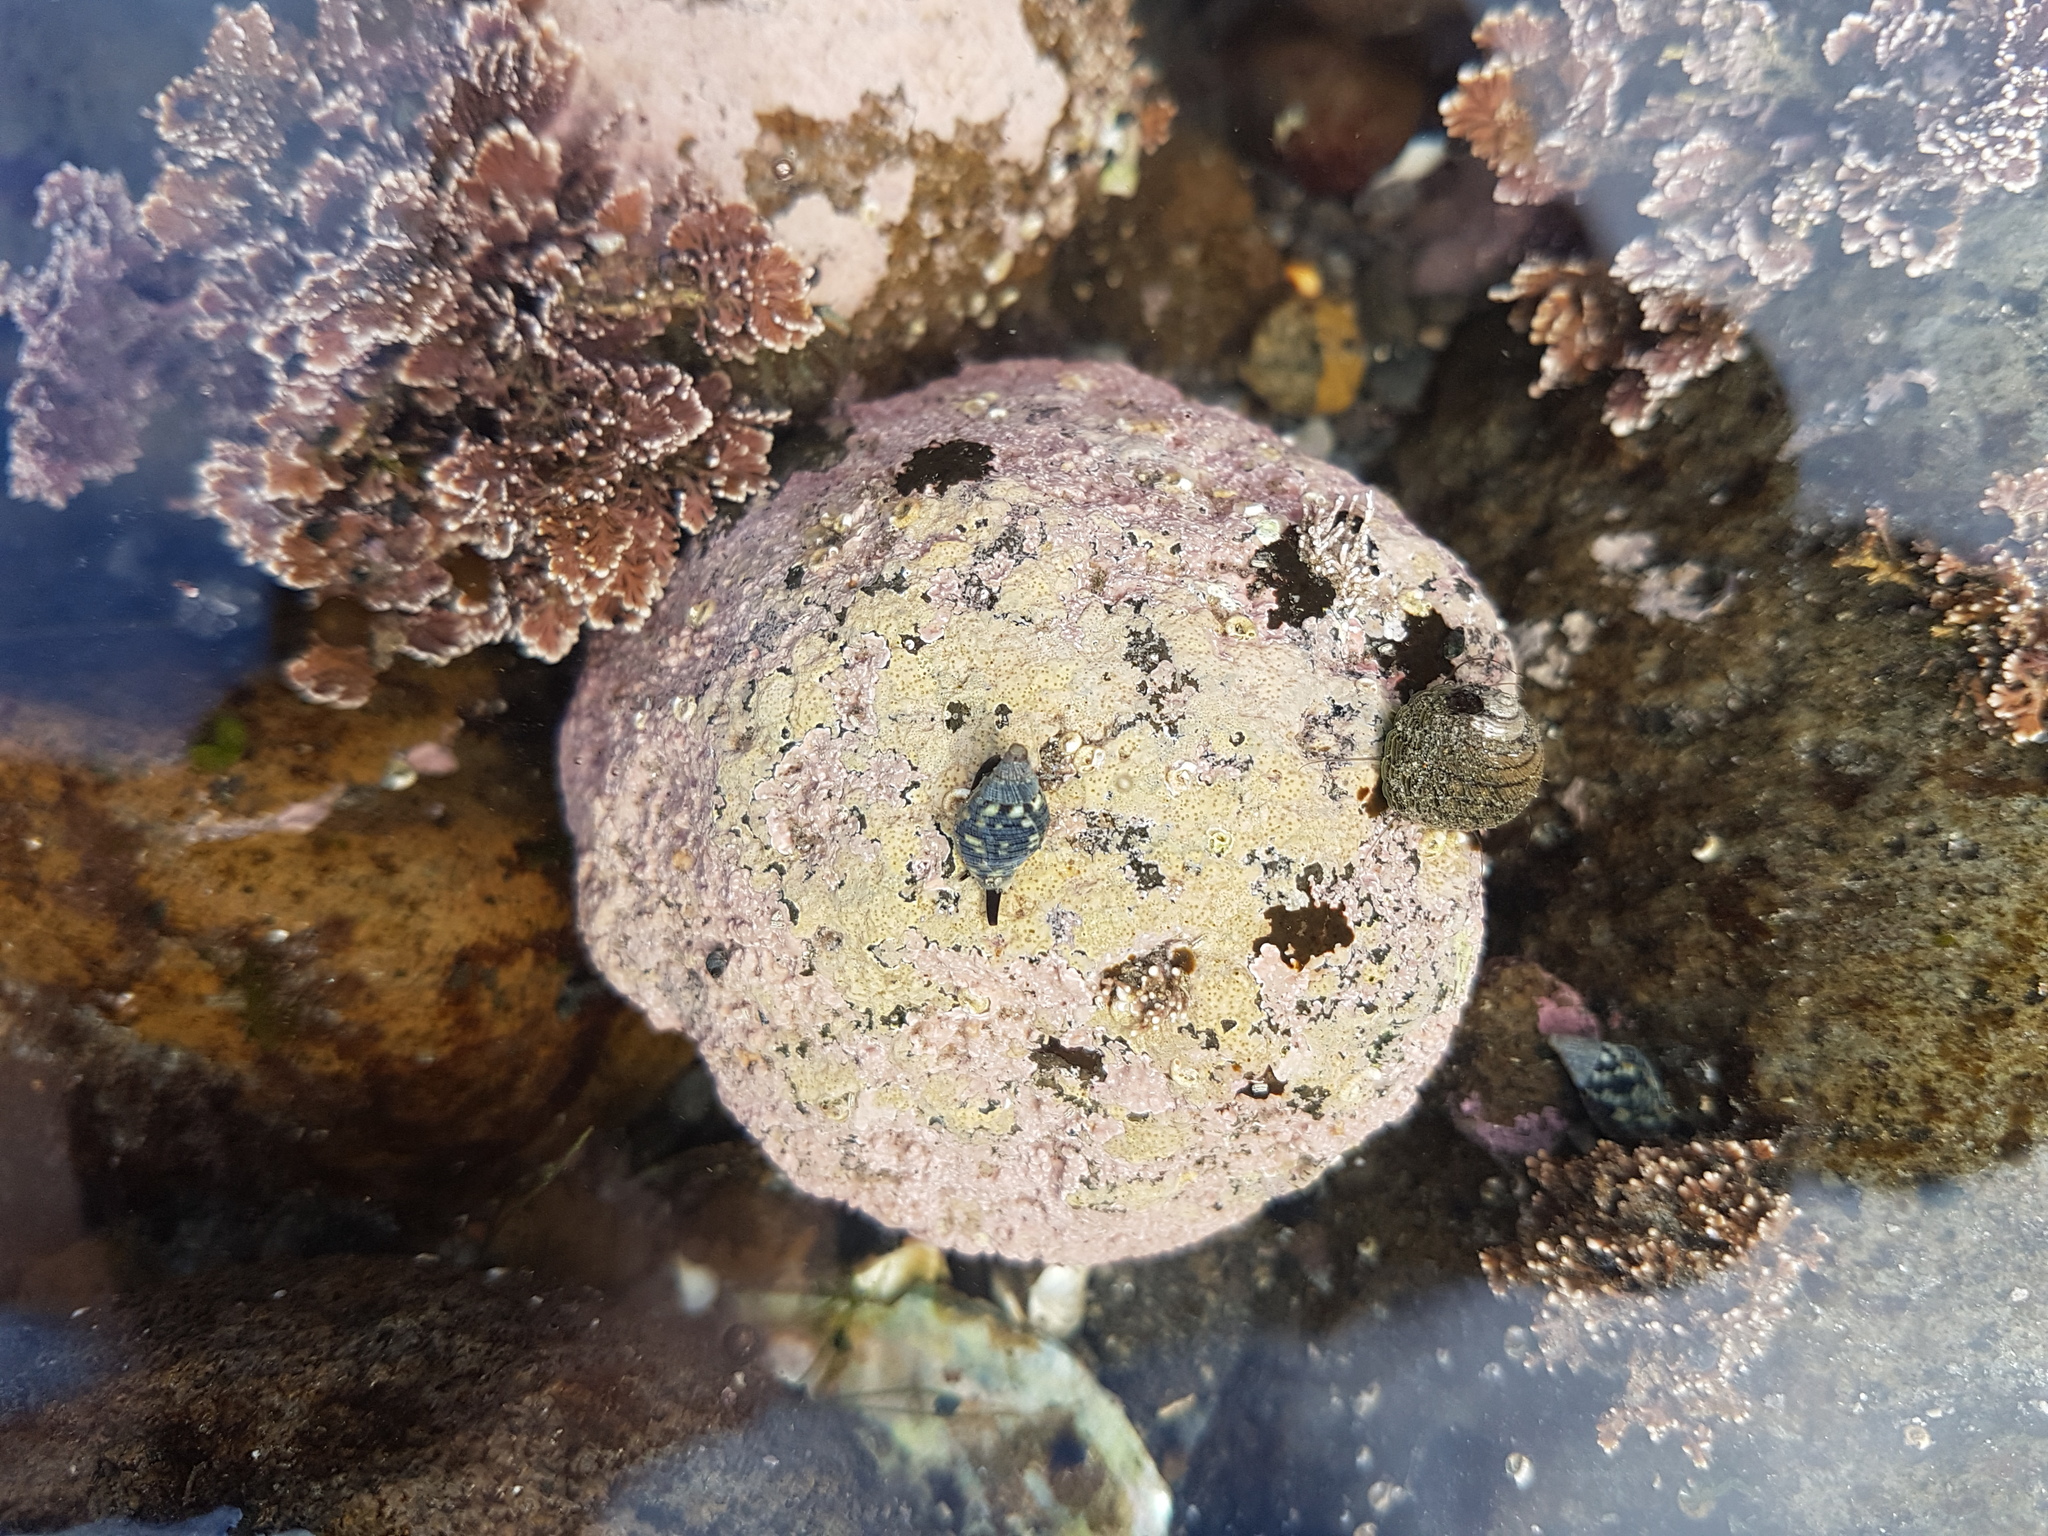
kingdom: Animalia
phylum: Mollusca
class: Gastropoda
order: Neogastropoda
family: Cominellidae
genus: Cominella
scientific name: Cominella maculosa
